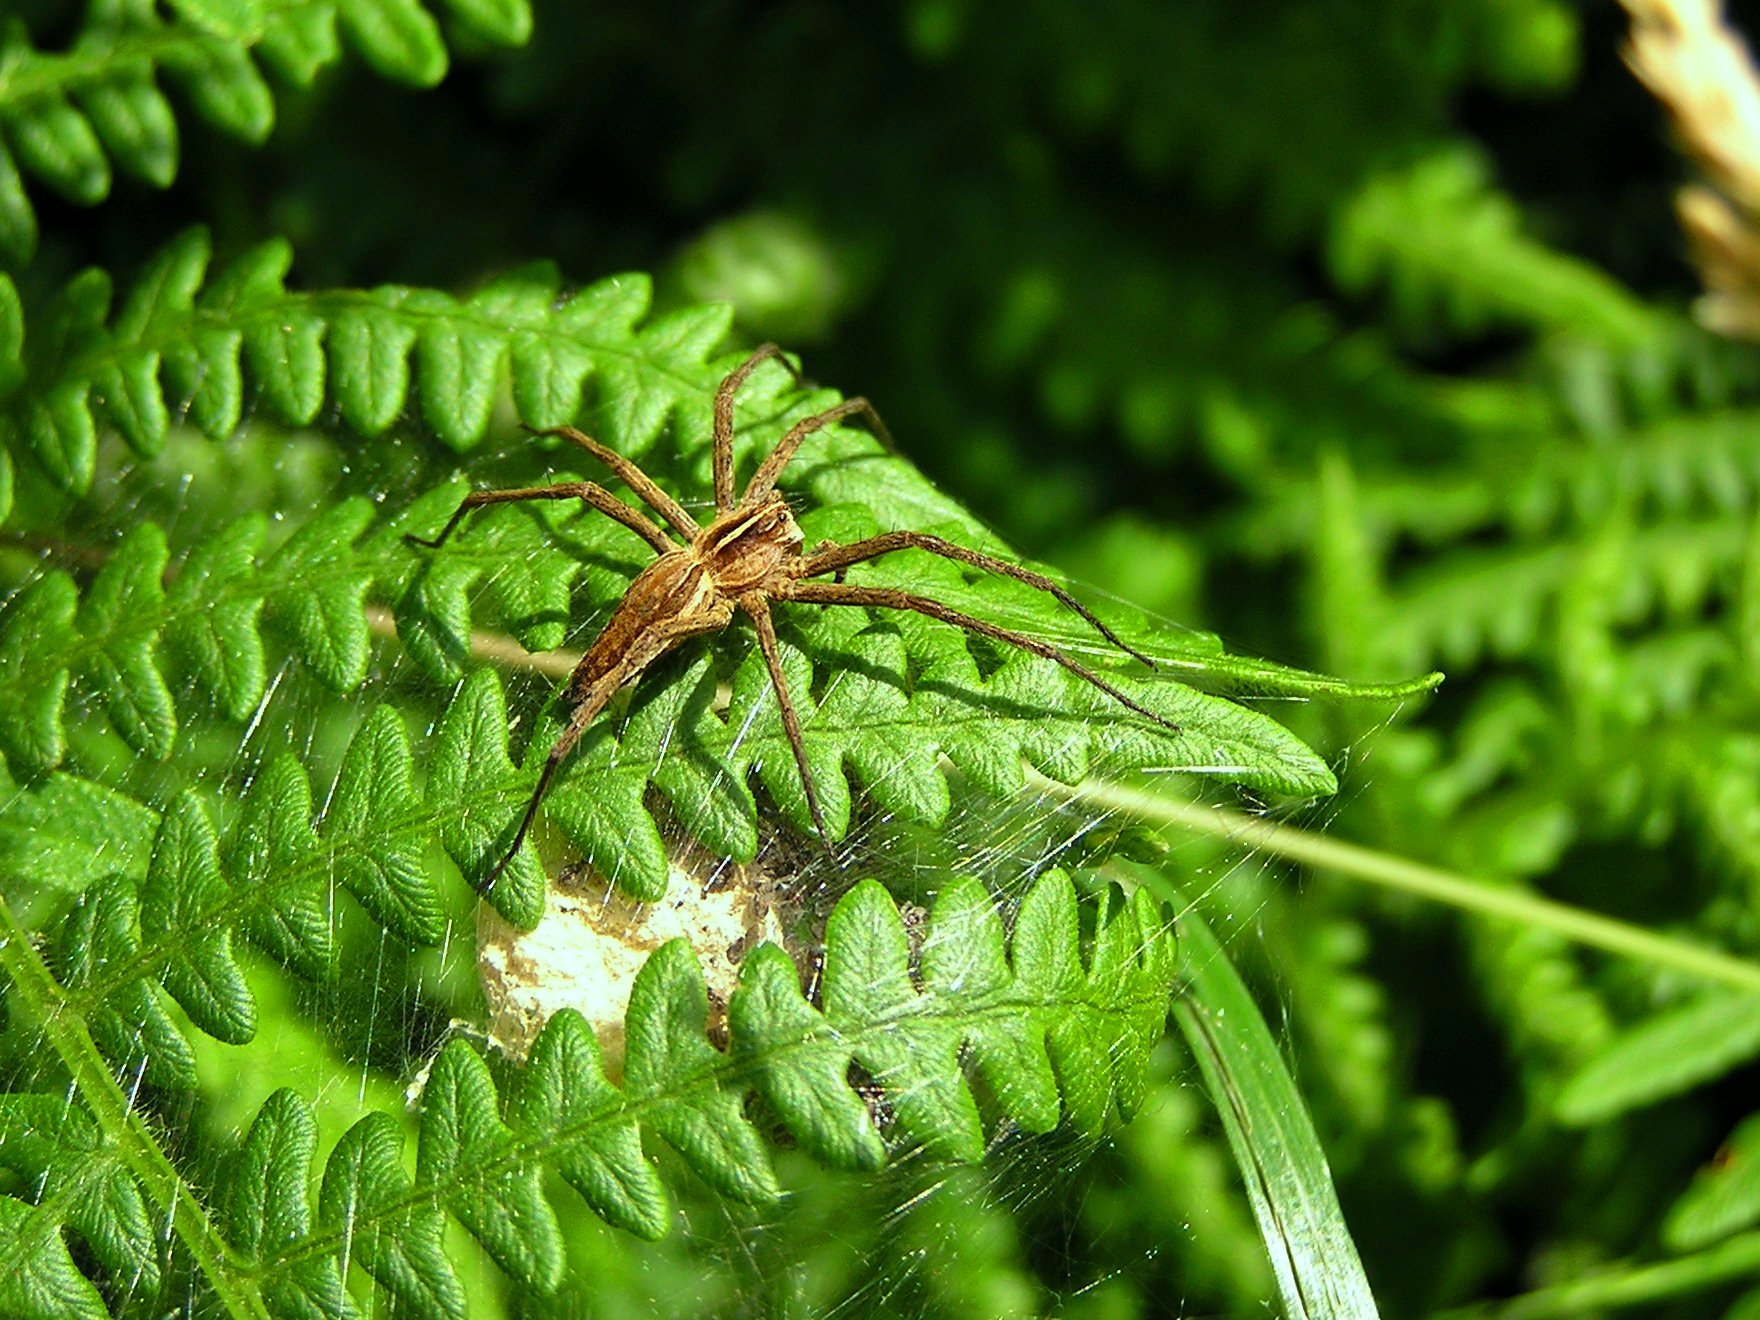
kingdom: Animalia
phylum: Arthropoda
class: Arachnida
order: Araneae
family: Pisauridae
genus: Pisaura
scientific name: Pisaura mirabilis
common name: Tent spider
